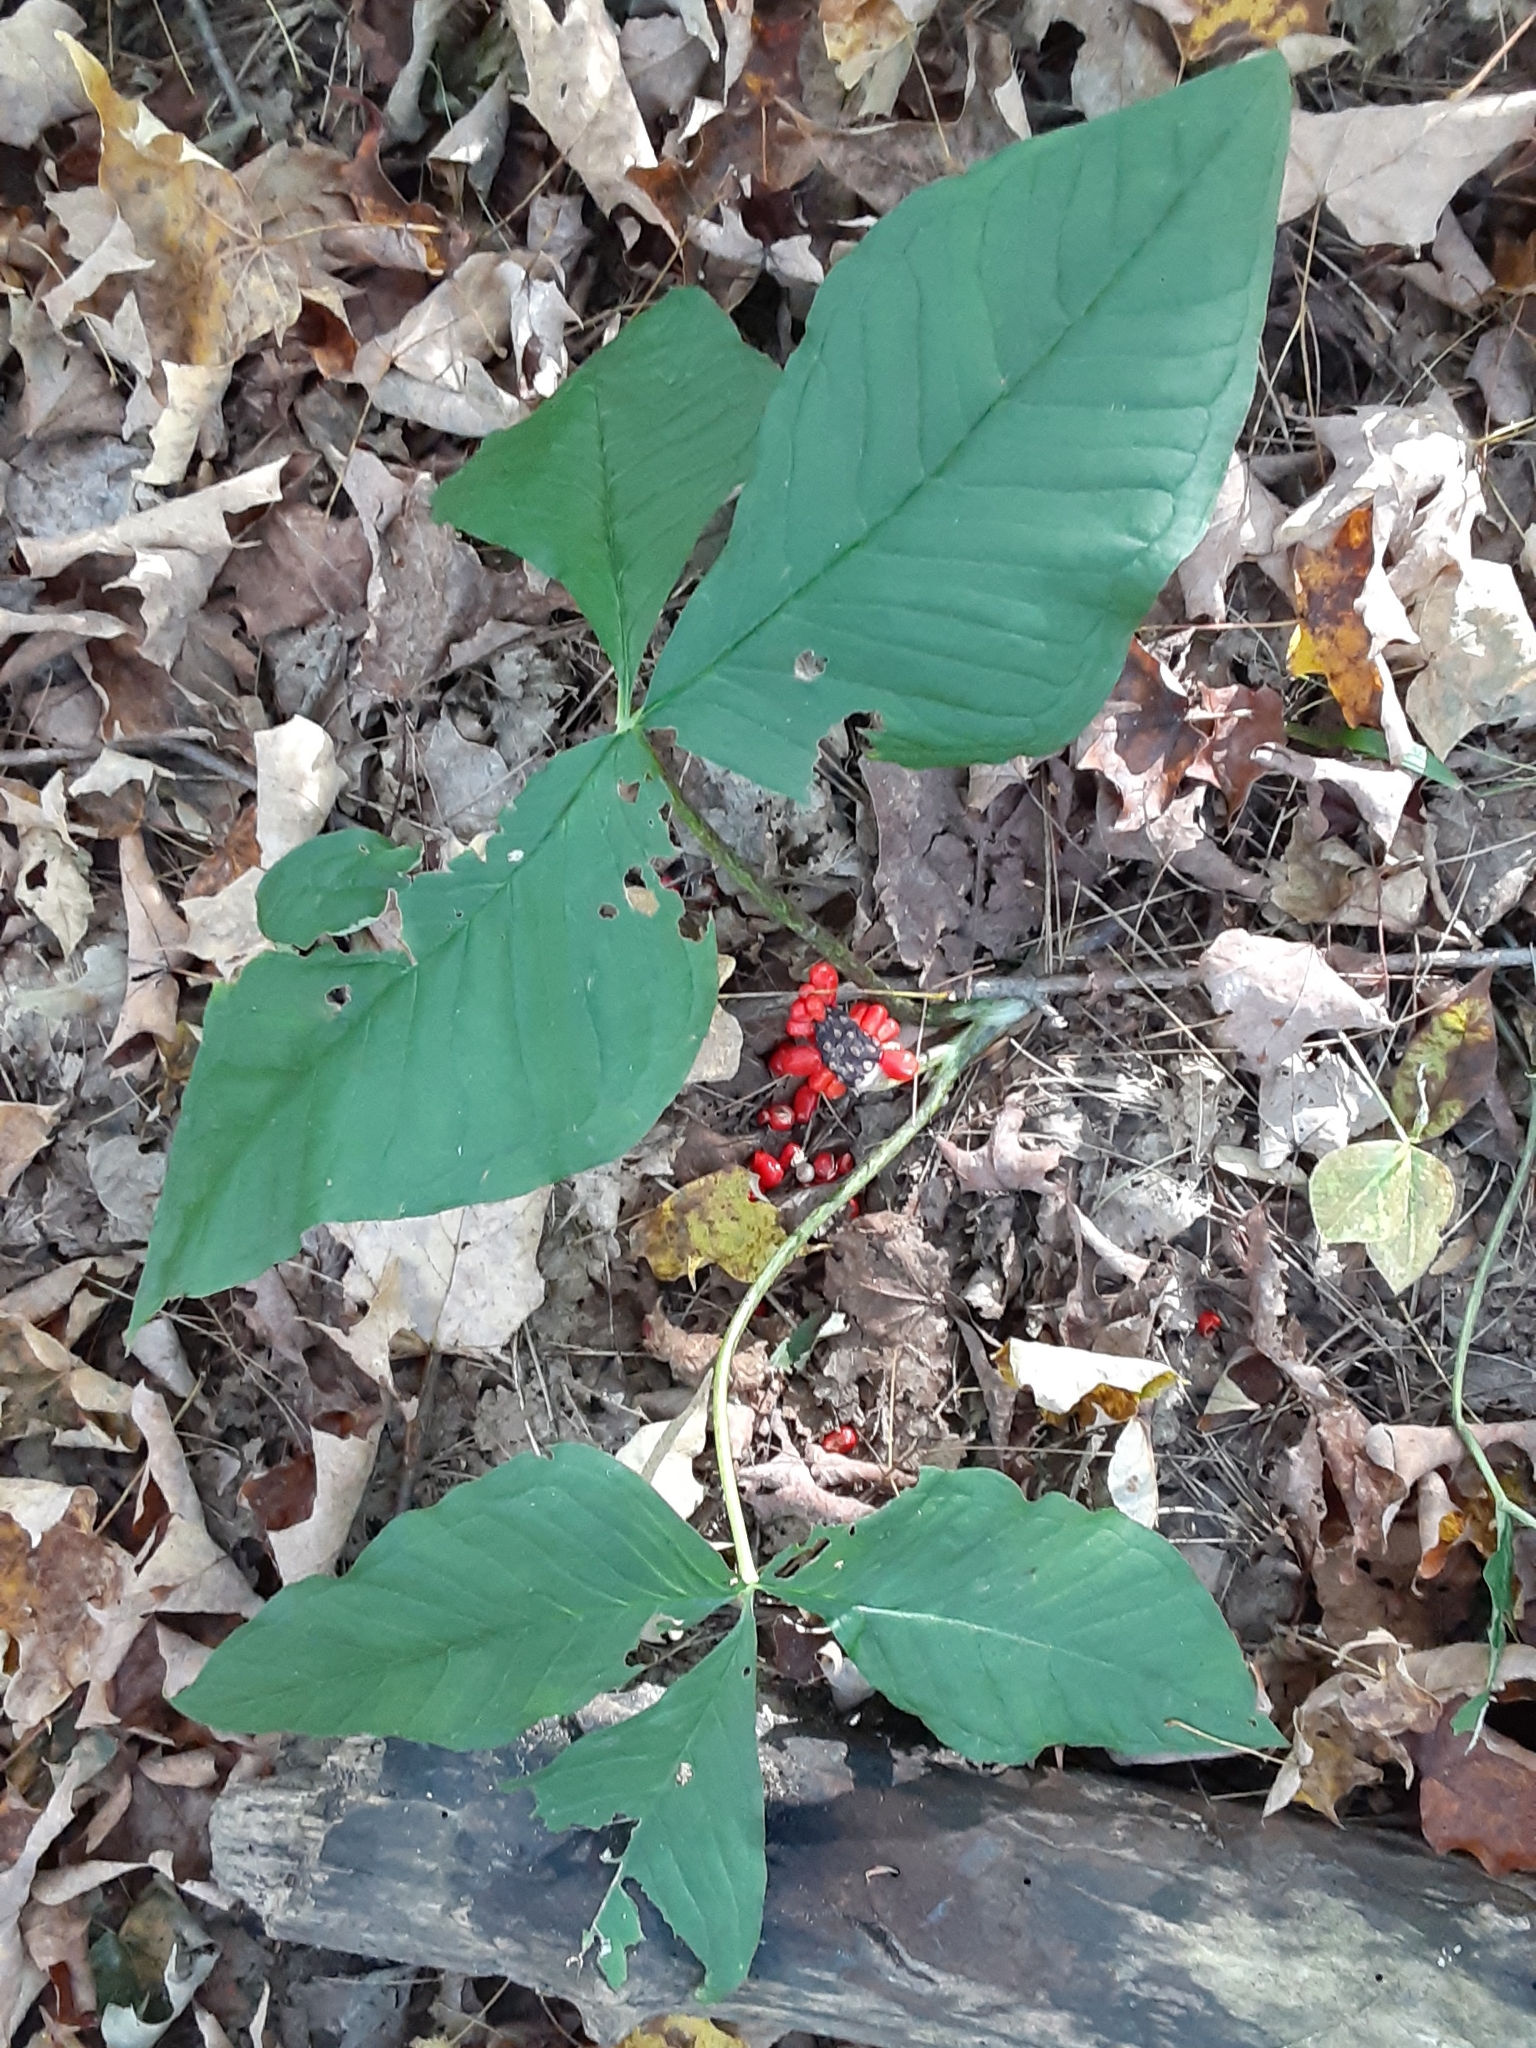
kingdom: Plantae
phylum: Tracheophyta
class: Liliopsida
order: Alismatales
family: Araceae
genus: Arisaema
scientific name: Arisaema triphyllum
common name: Jack-in-the-pulpit
